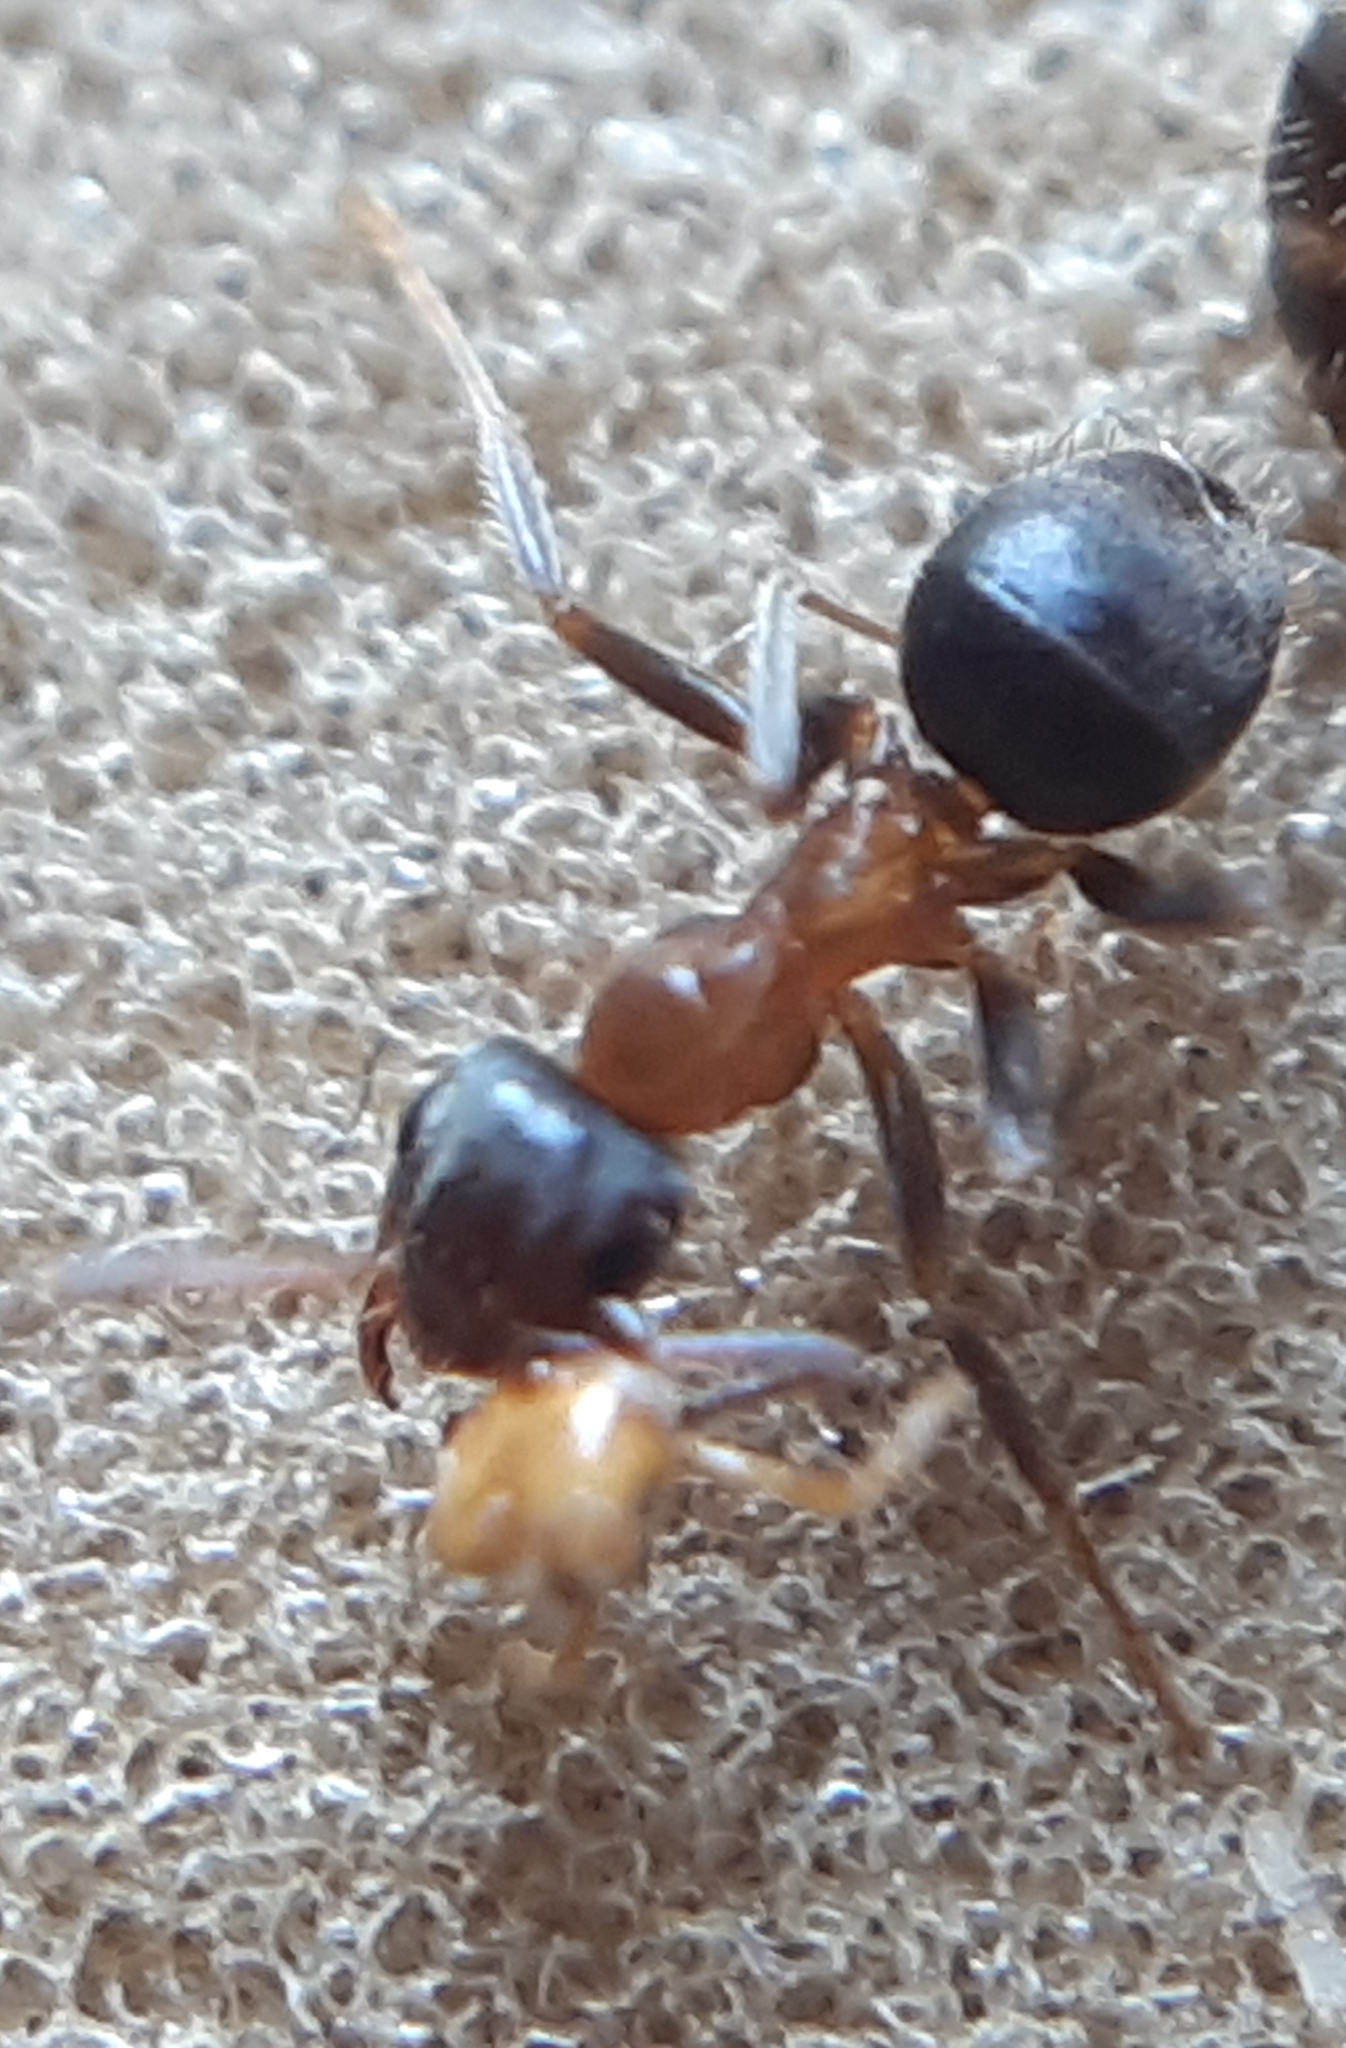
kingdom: Animalia
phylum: Arthropoda
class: Insecta
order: Hymenoptera
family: Formicidae
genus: Lasius
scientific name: Lasius emarginatus
